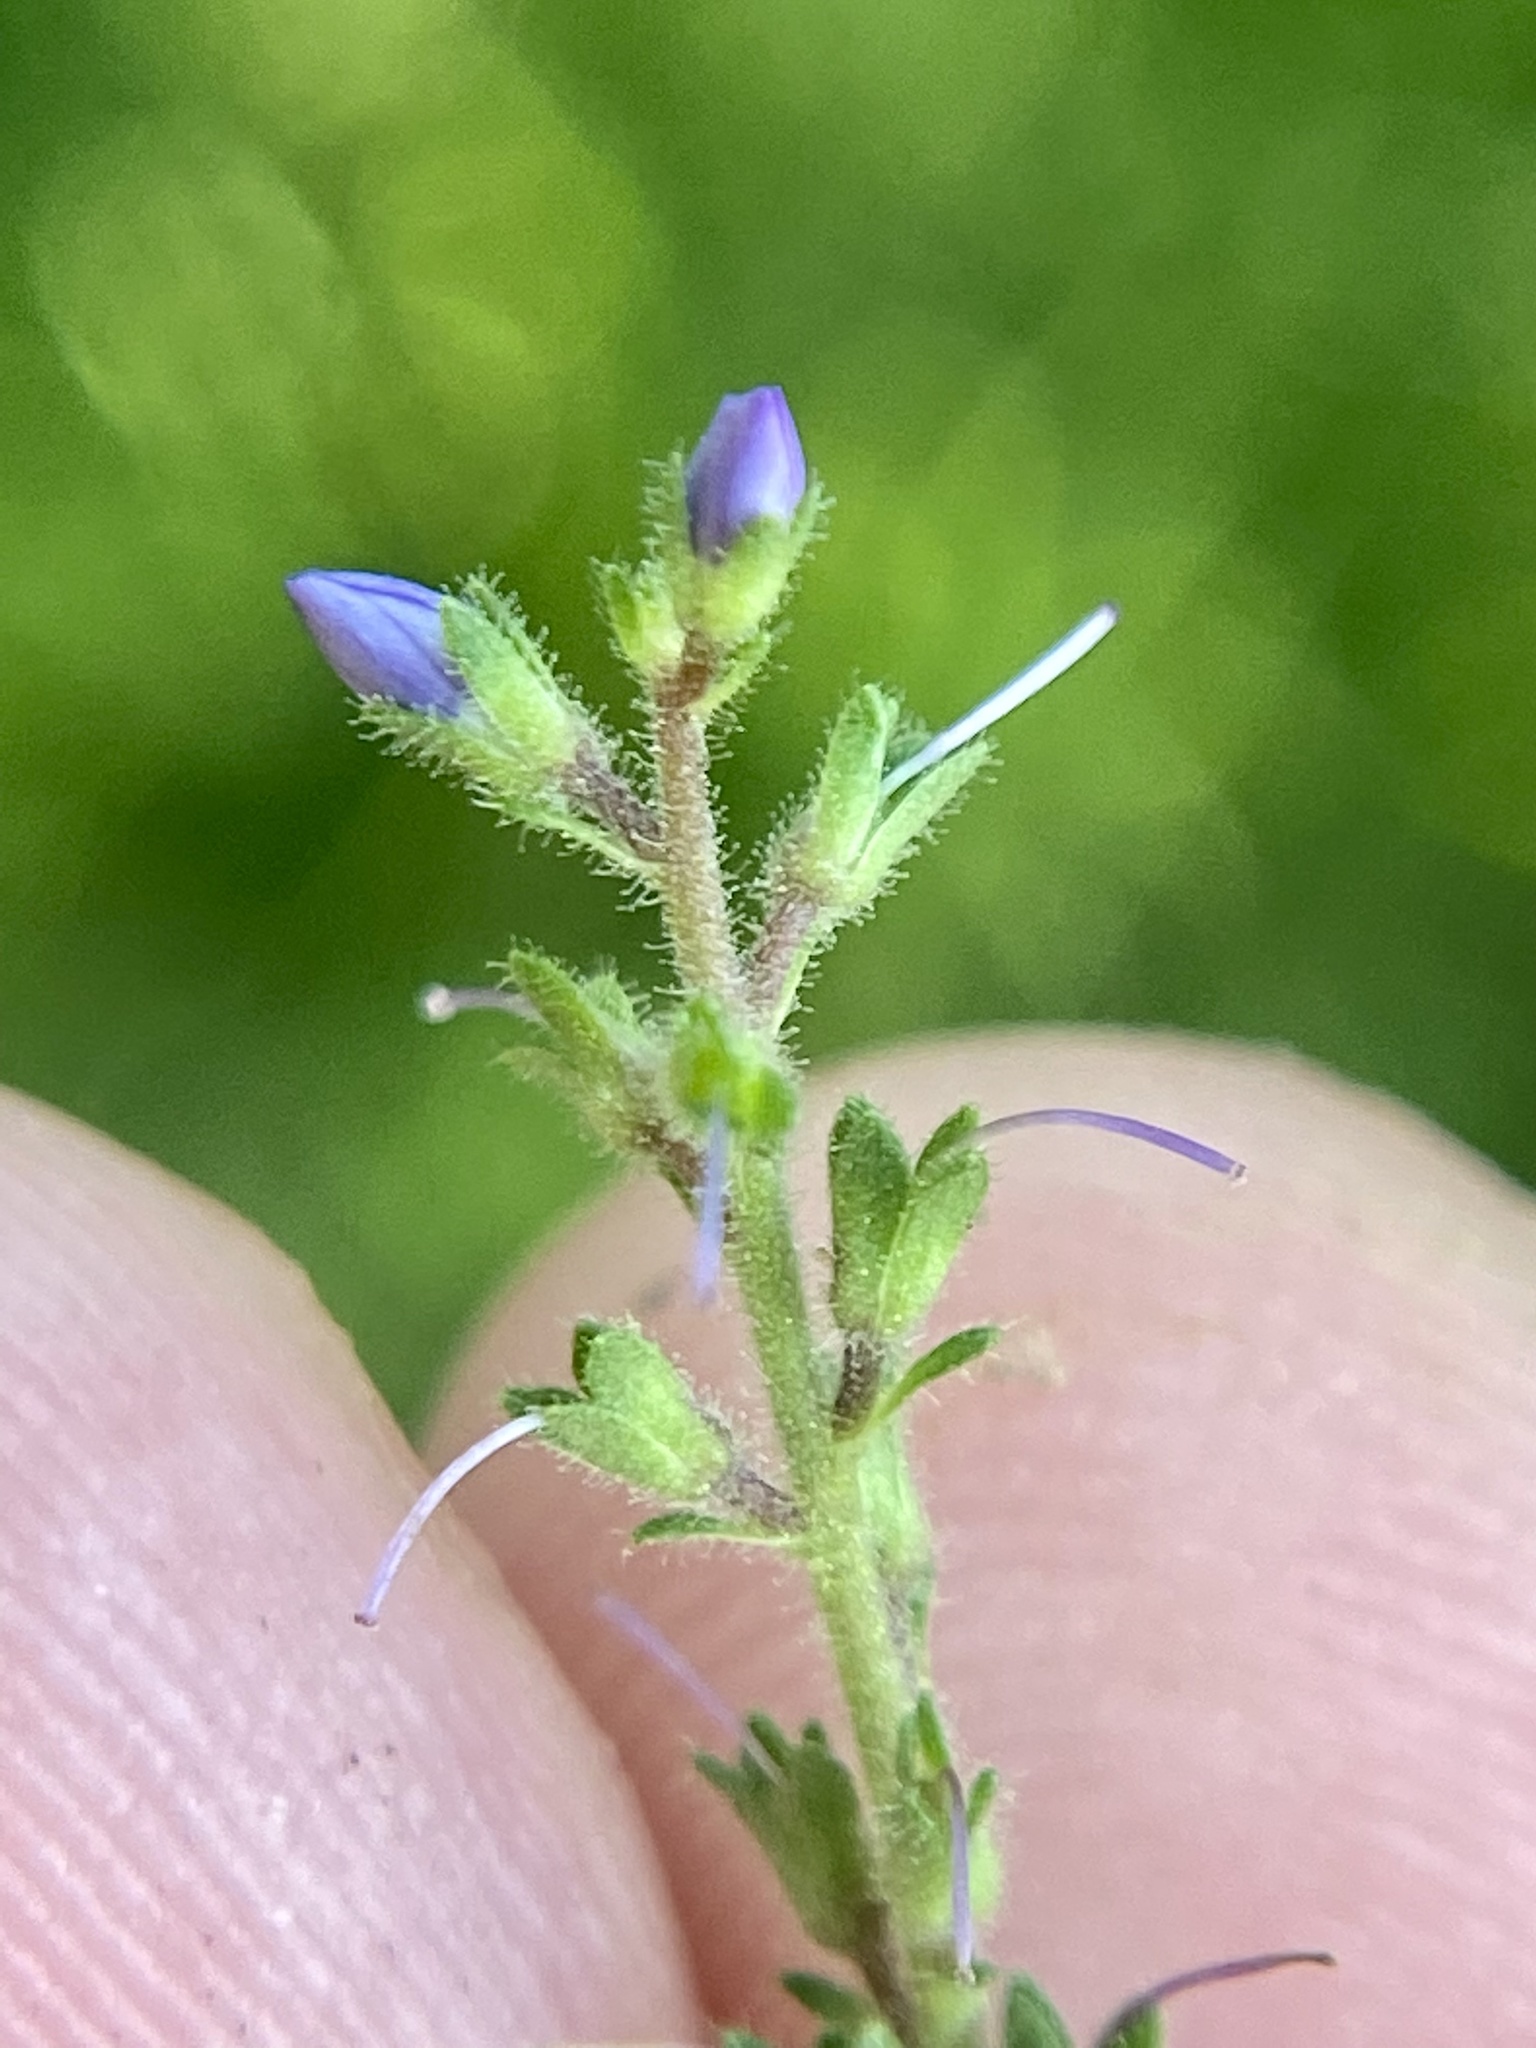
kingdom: Plantae
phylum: Tracheophyta
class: Magnoliopsida
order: Lamiales
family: Plantaginaceae
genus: Veronica
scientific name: Veronica officinalis
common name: Common speedwell
